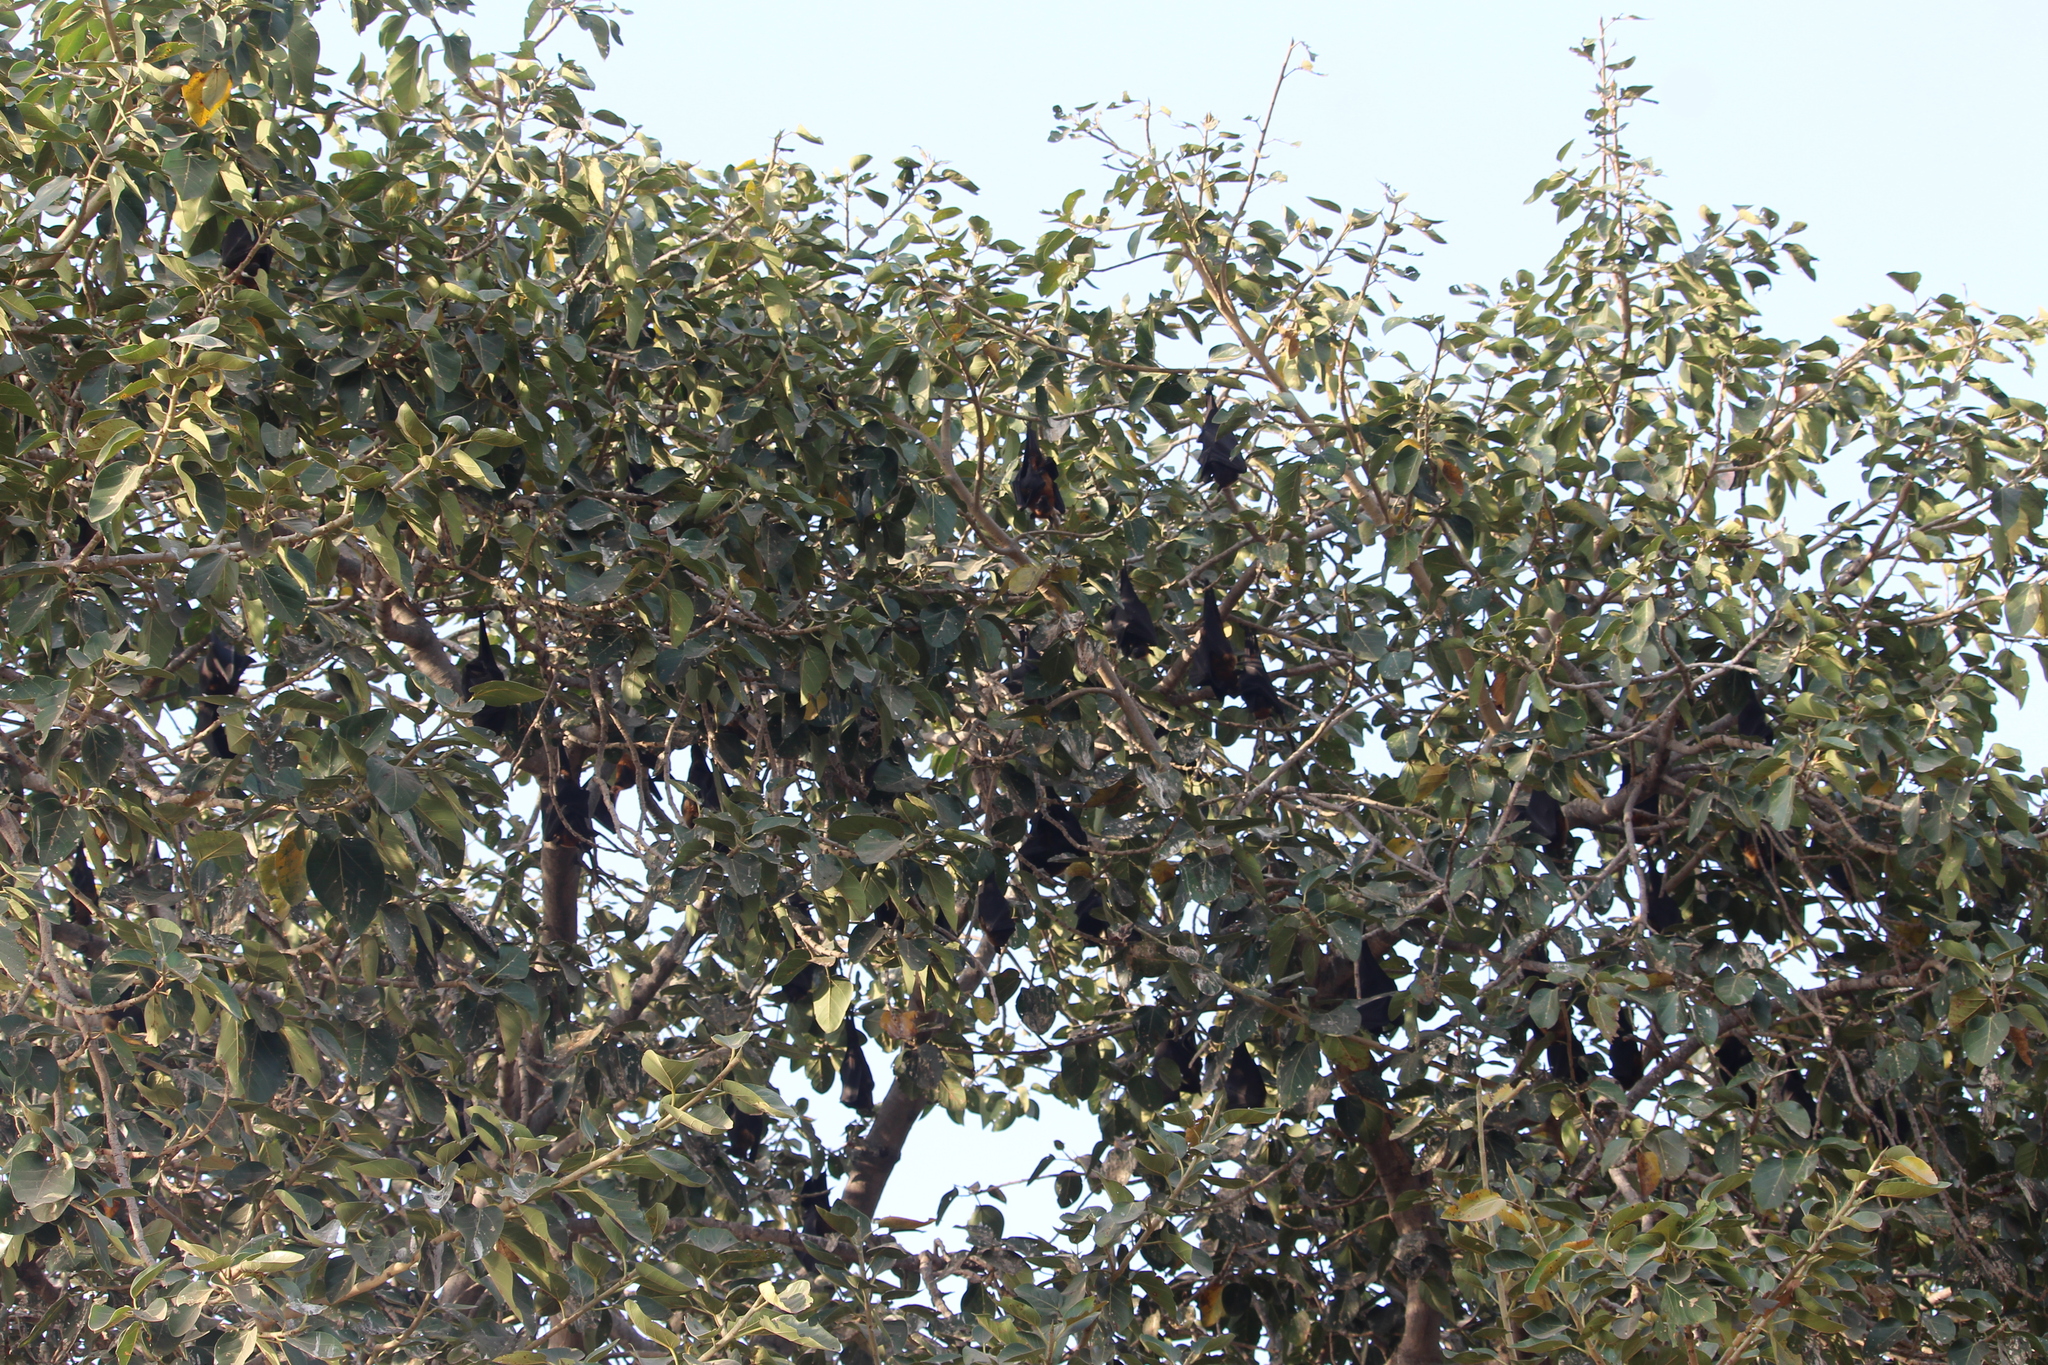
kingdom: Animalia
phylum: Chordata
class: Mammalia
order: Chiroptera
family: Pteropodidae
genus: Pteropus
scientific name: Pteropus vampyrus
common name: Large flying fox
